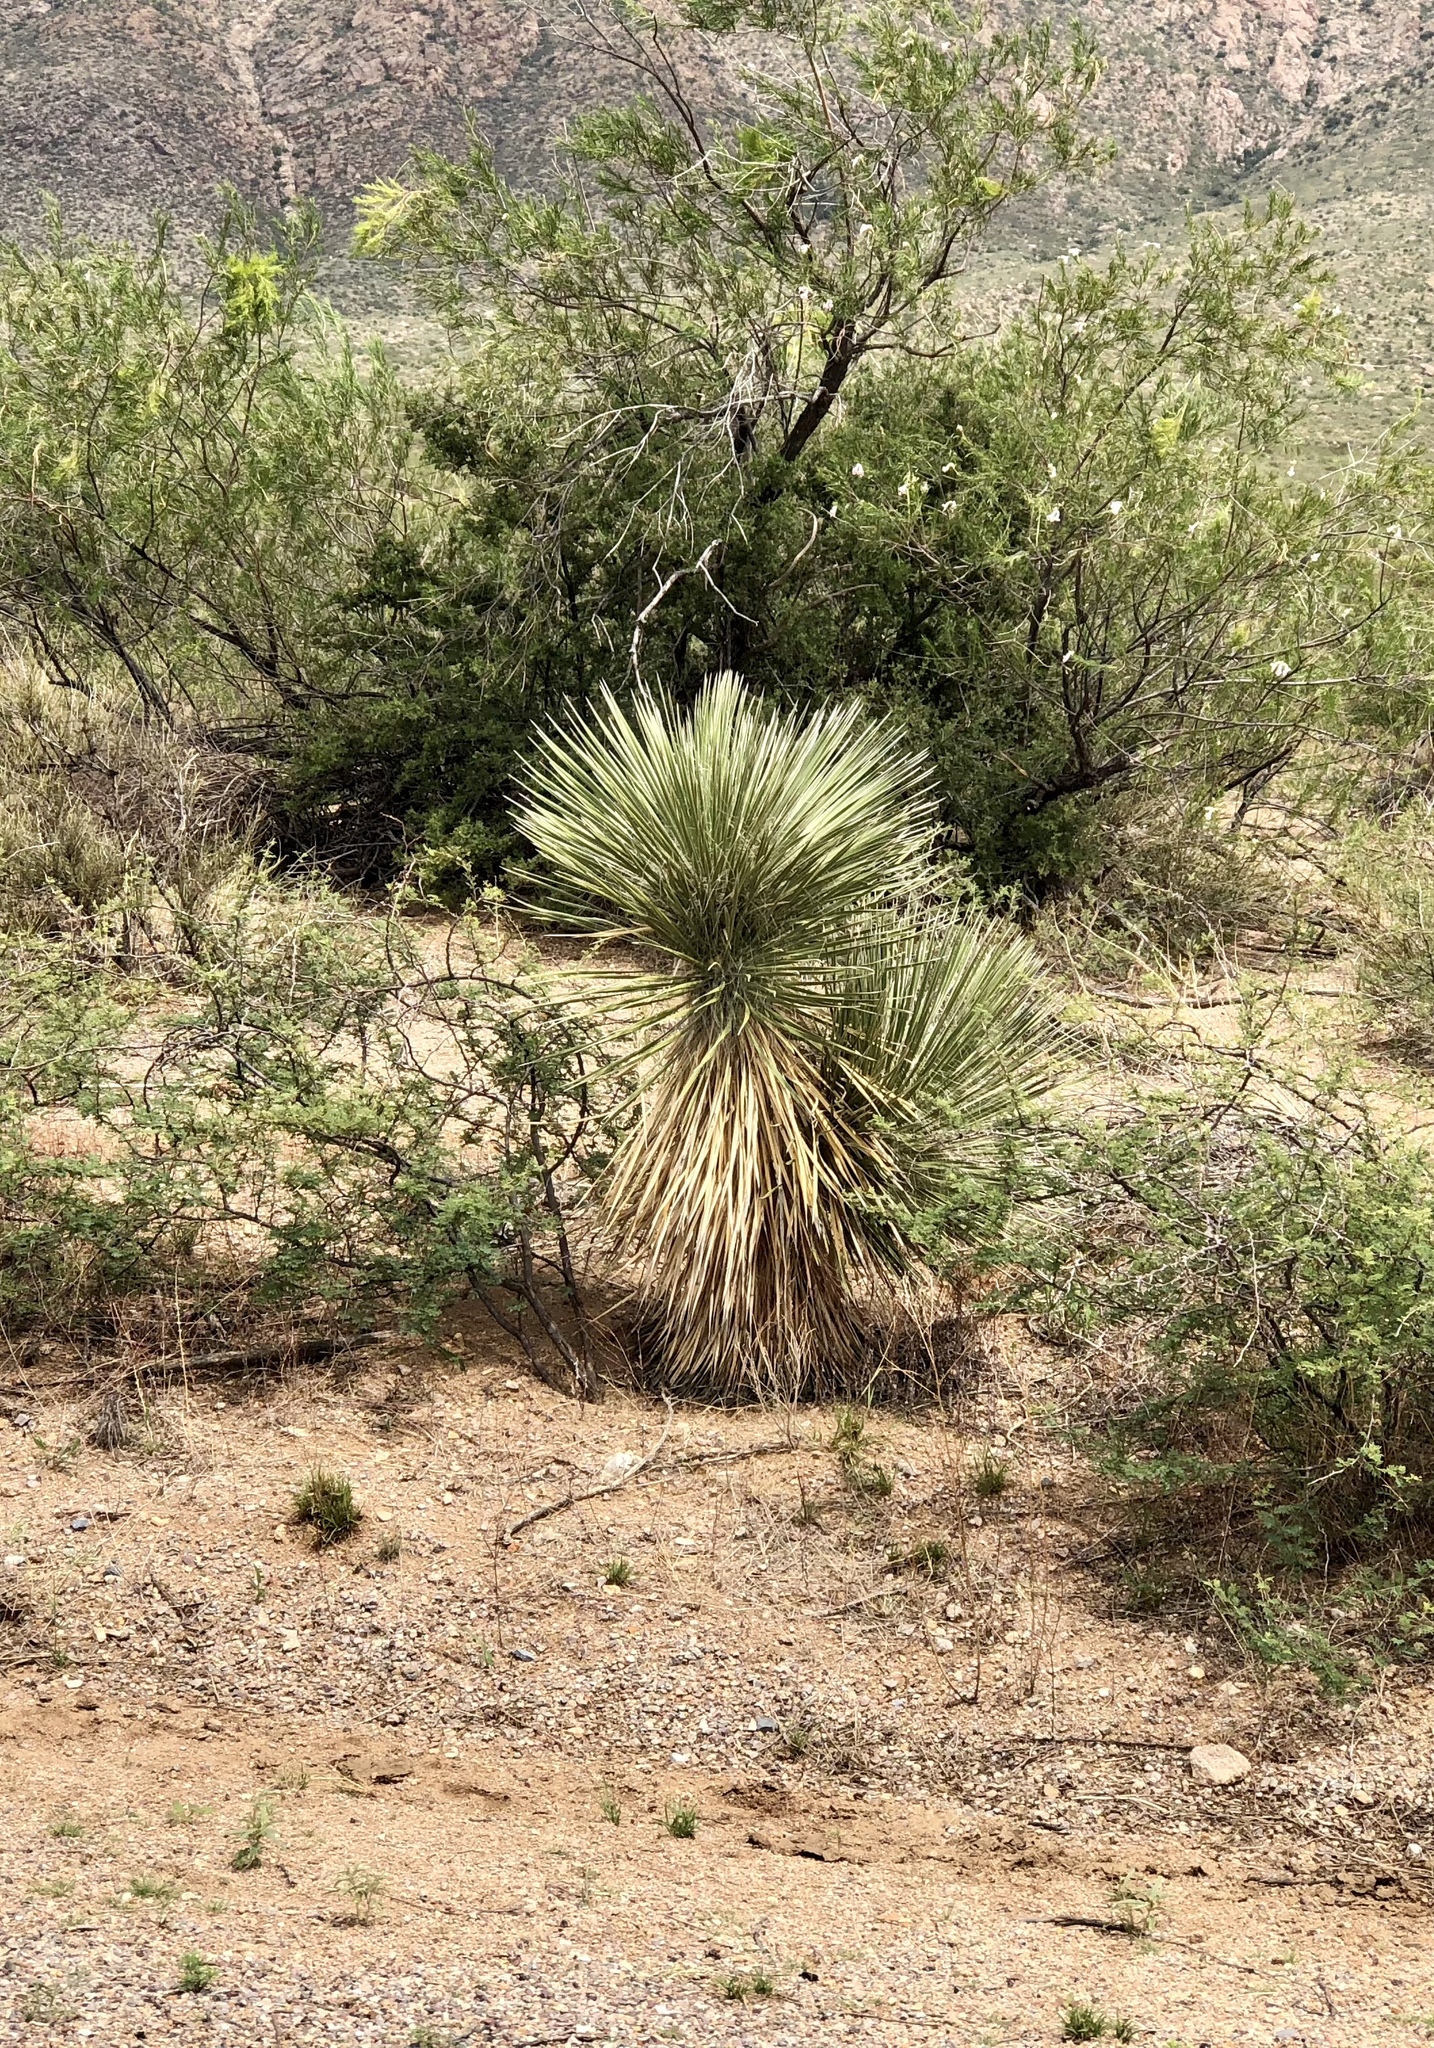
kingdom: Plantae
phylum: Tracheophyta
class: Liliopsida
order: Asparagales
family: Asparagaceae
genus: Yucca
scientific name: Yucca elata
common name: Palmella
